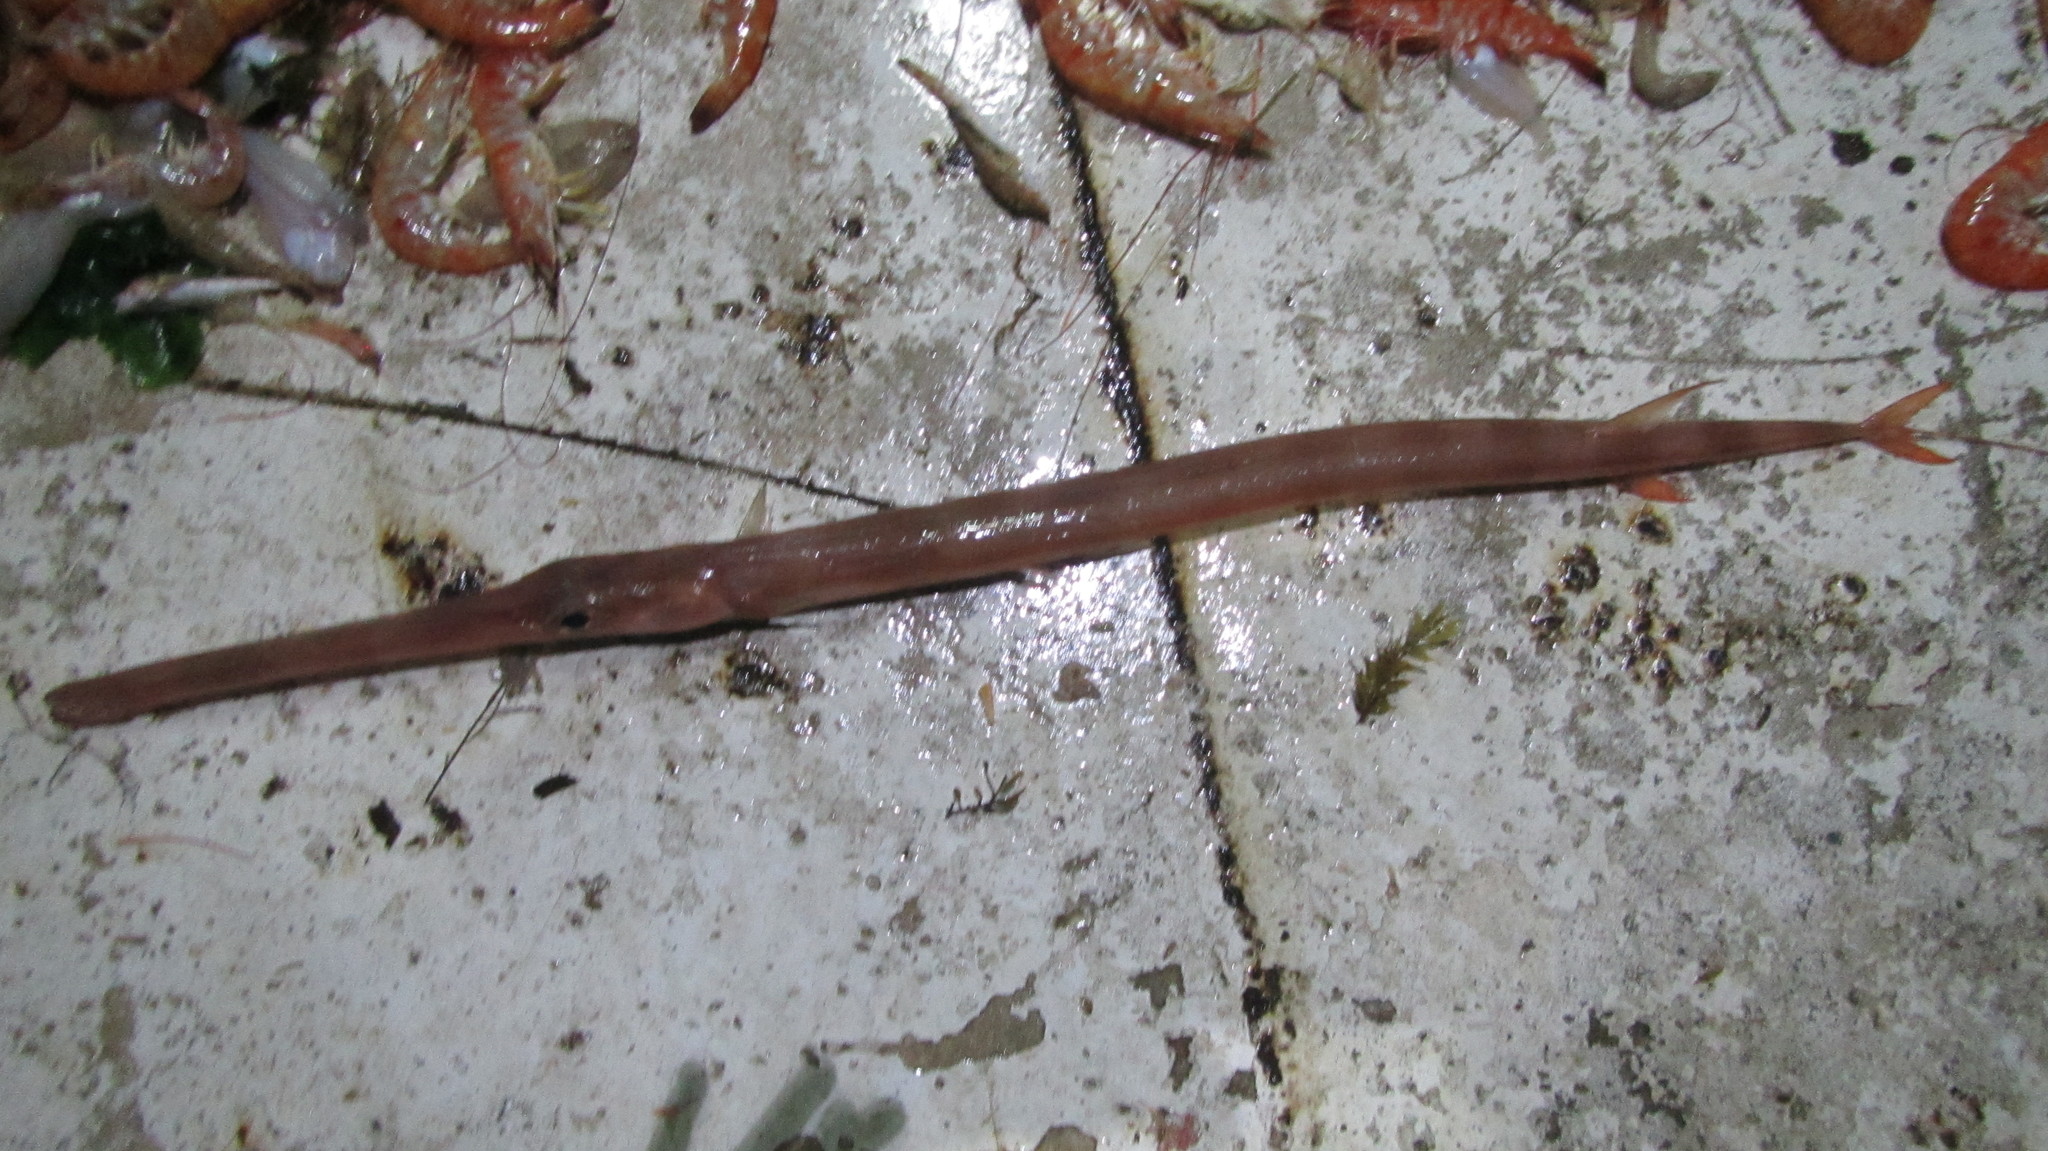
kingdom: Animalia
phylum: Chordata
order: Syngnathiformes
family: Fistulariidae
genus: Fistularia
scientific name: Fistularia petimba
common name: Red cornetfish
